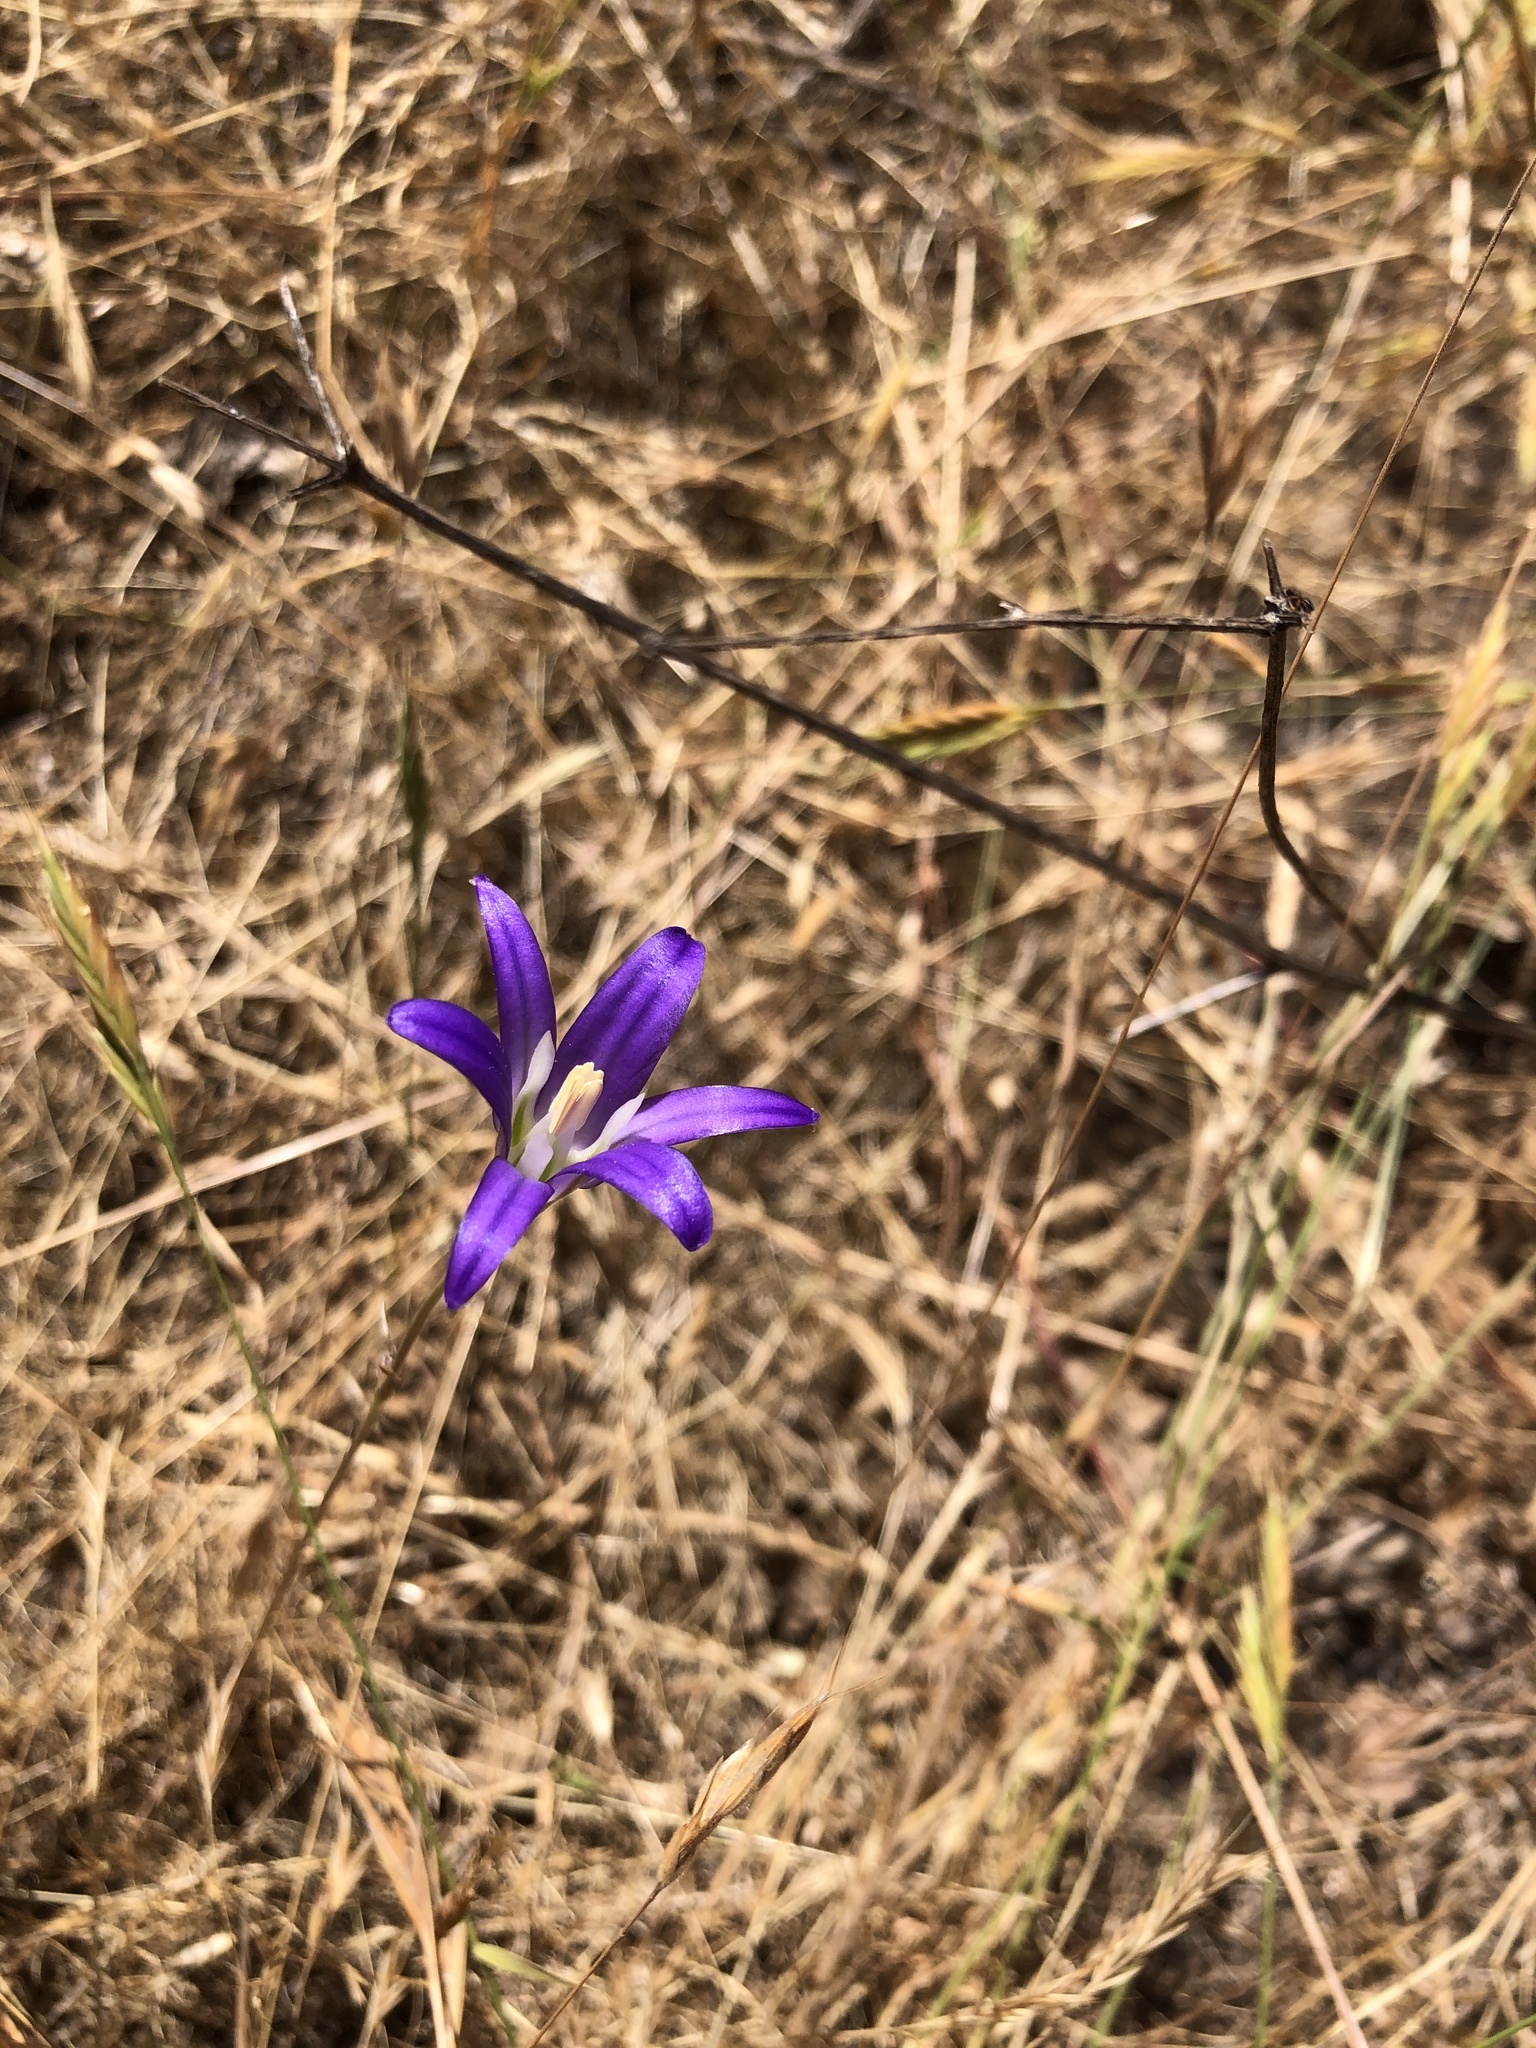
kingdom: Plantae
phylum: Tracheophyta
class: Liliopsida
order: Asparagales
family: Asparagaceae
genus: Brodiaea
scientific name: Brodiaea elegans
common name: Elegant cluster-lily
